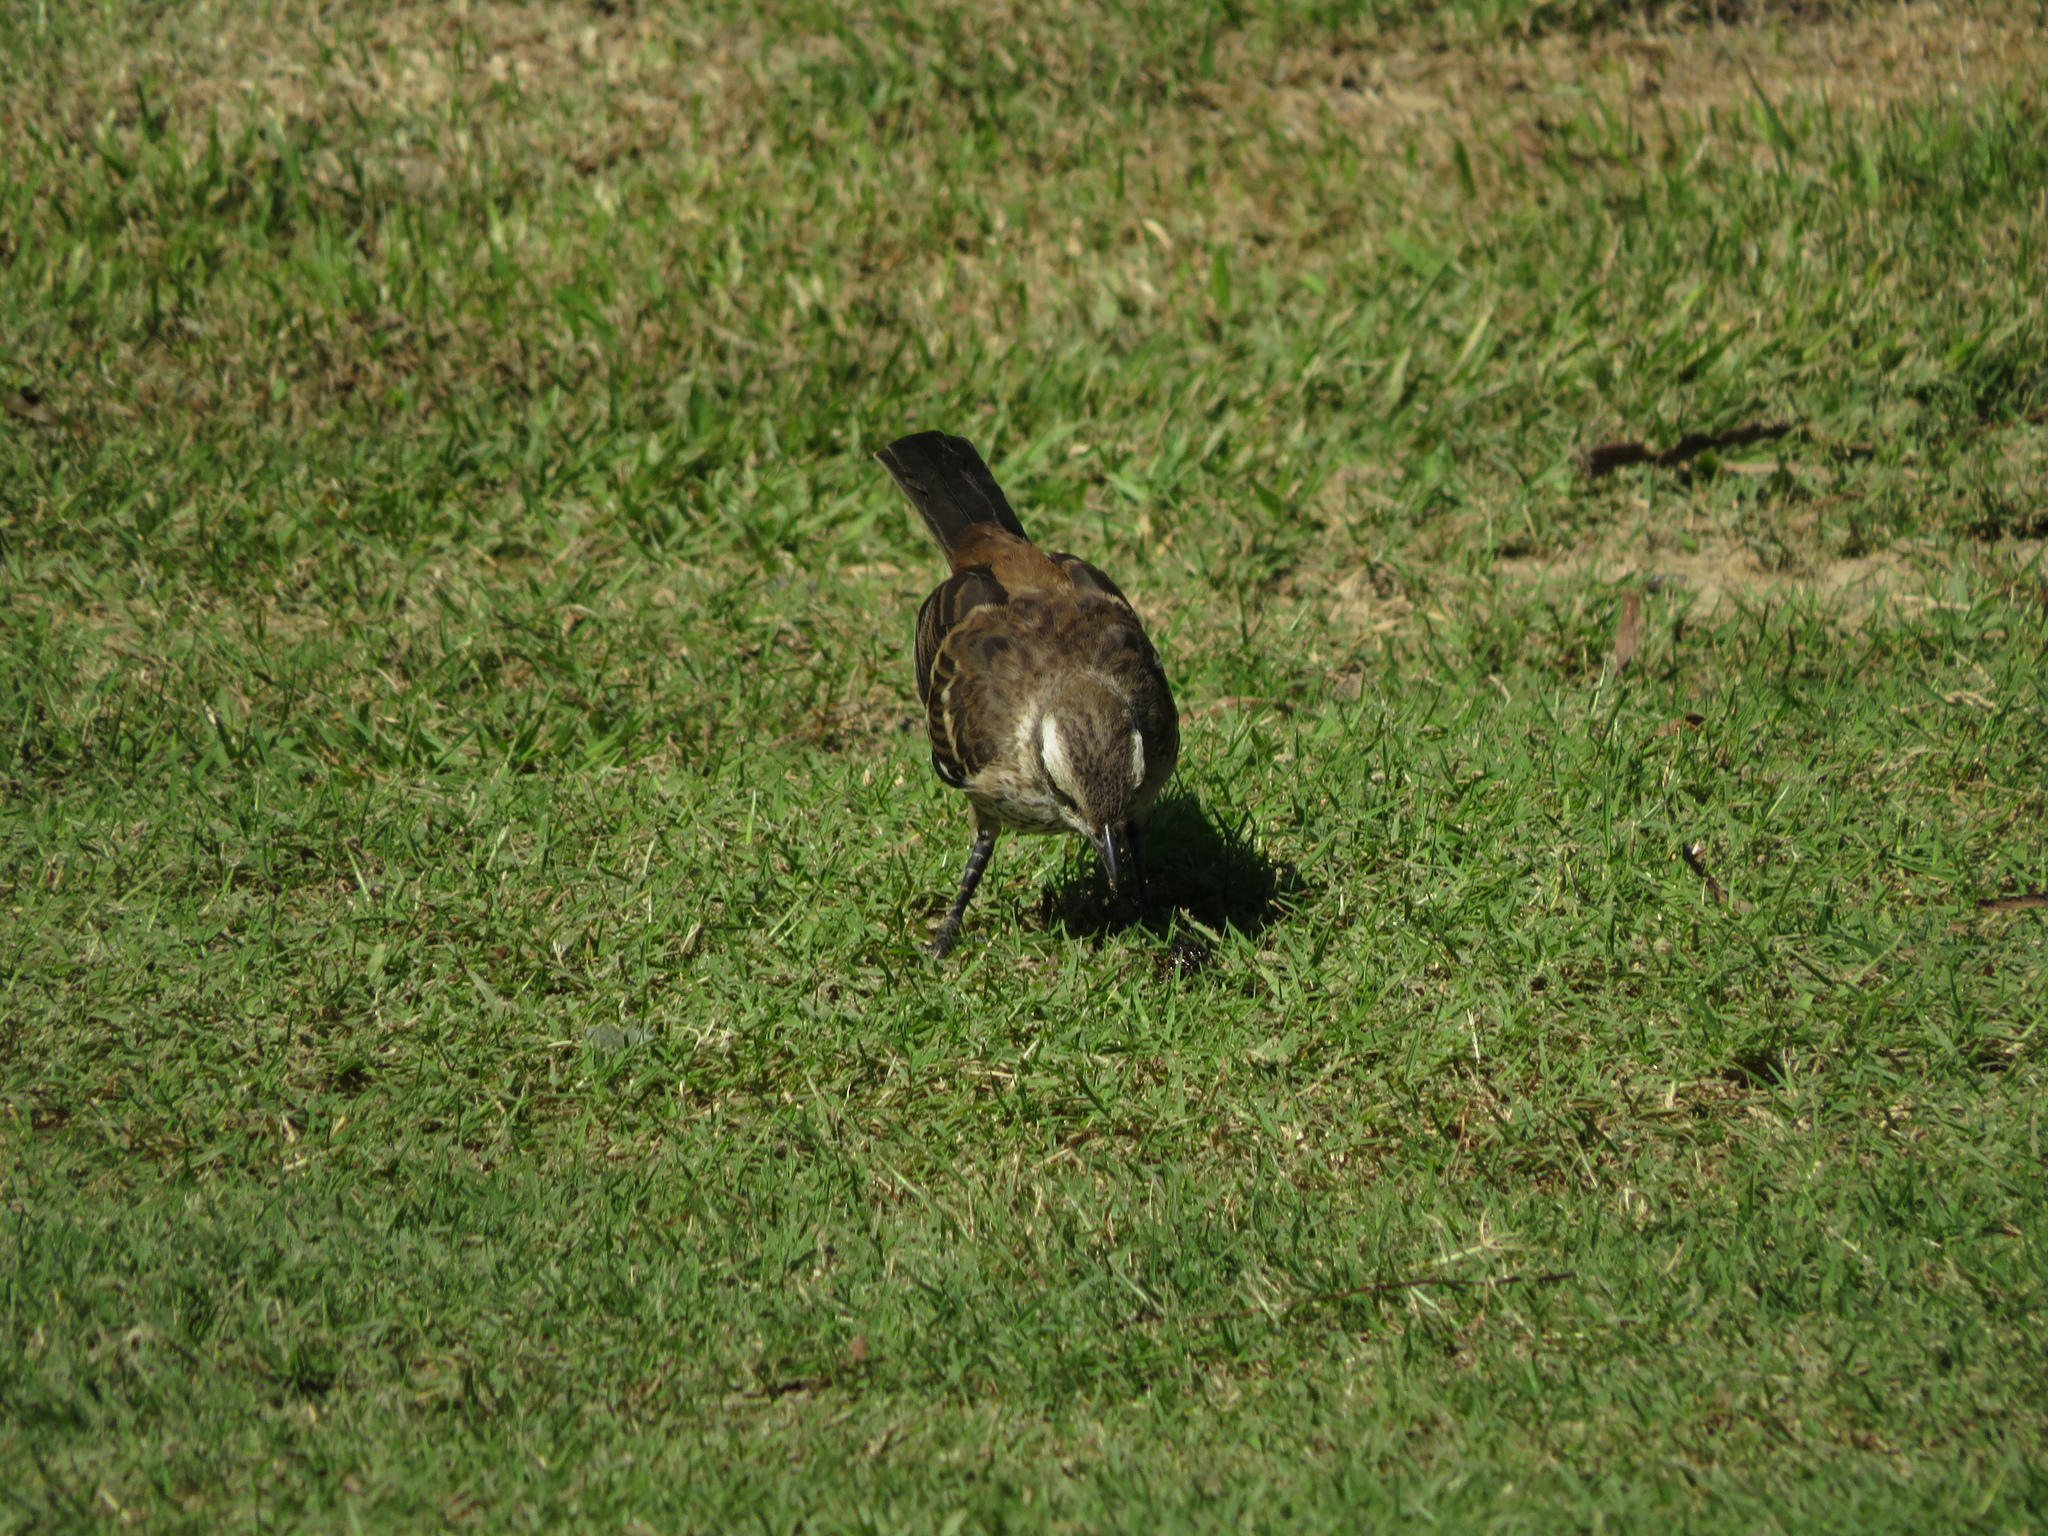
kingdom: Animalia
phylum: Chordata
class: Aves
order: Passeriformes
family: Mimidae
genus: Mimus
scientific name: Mimus saturninus
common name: Chalk-browed mockingbird
